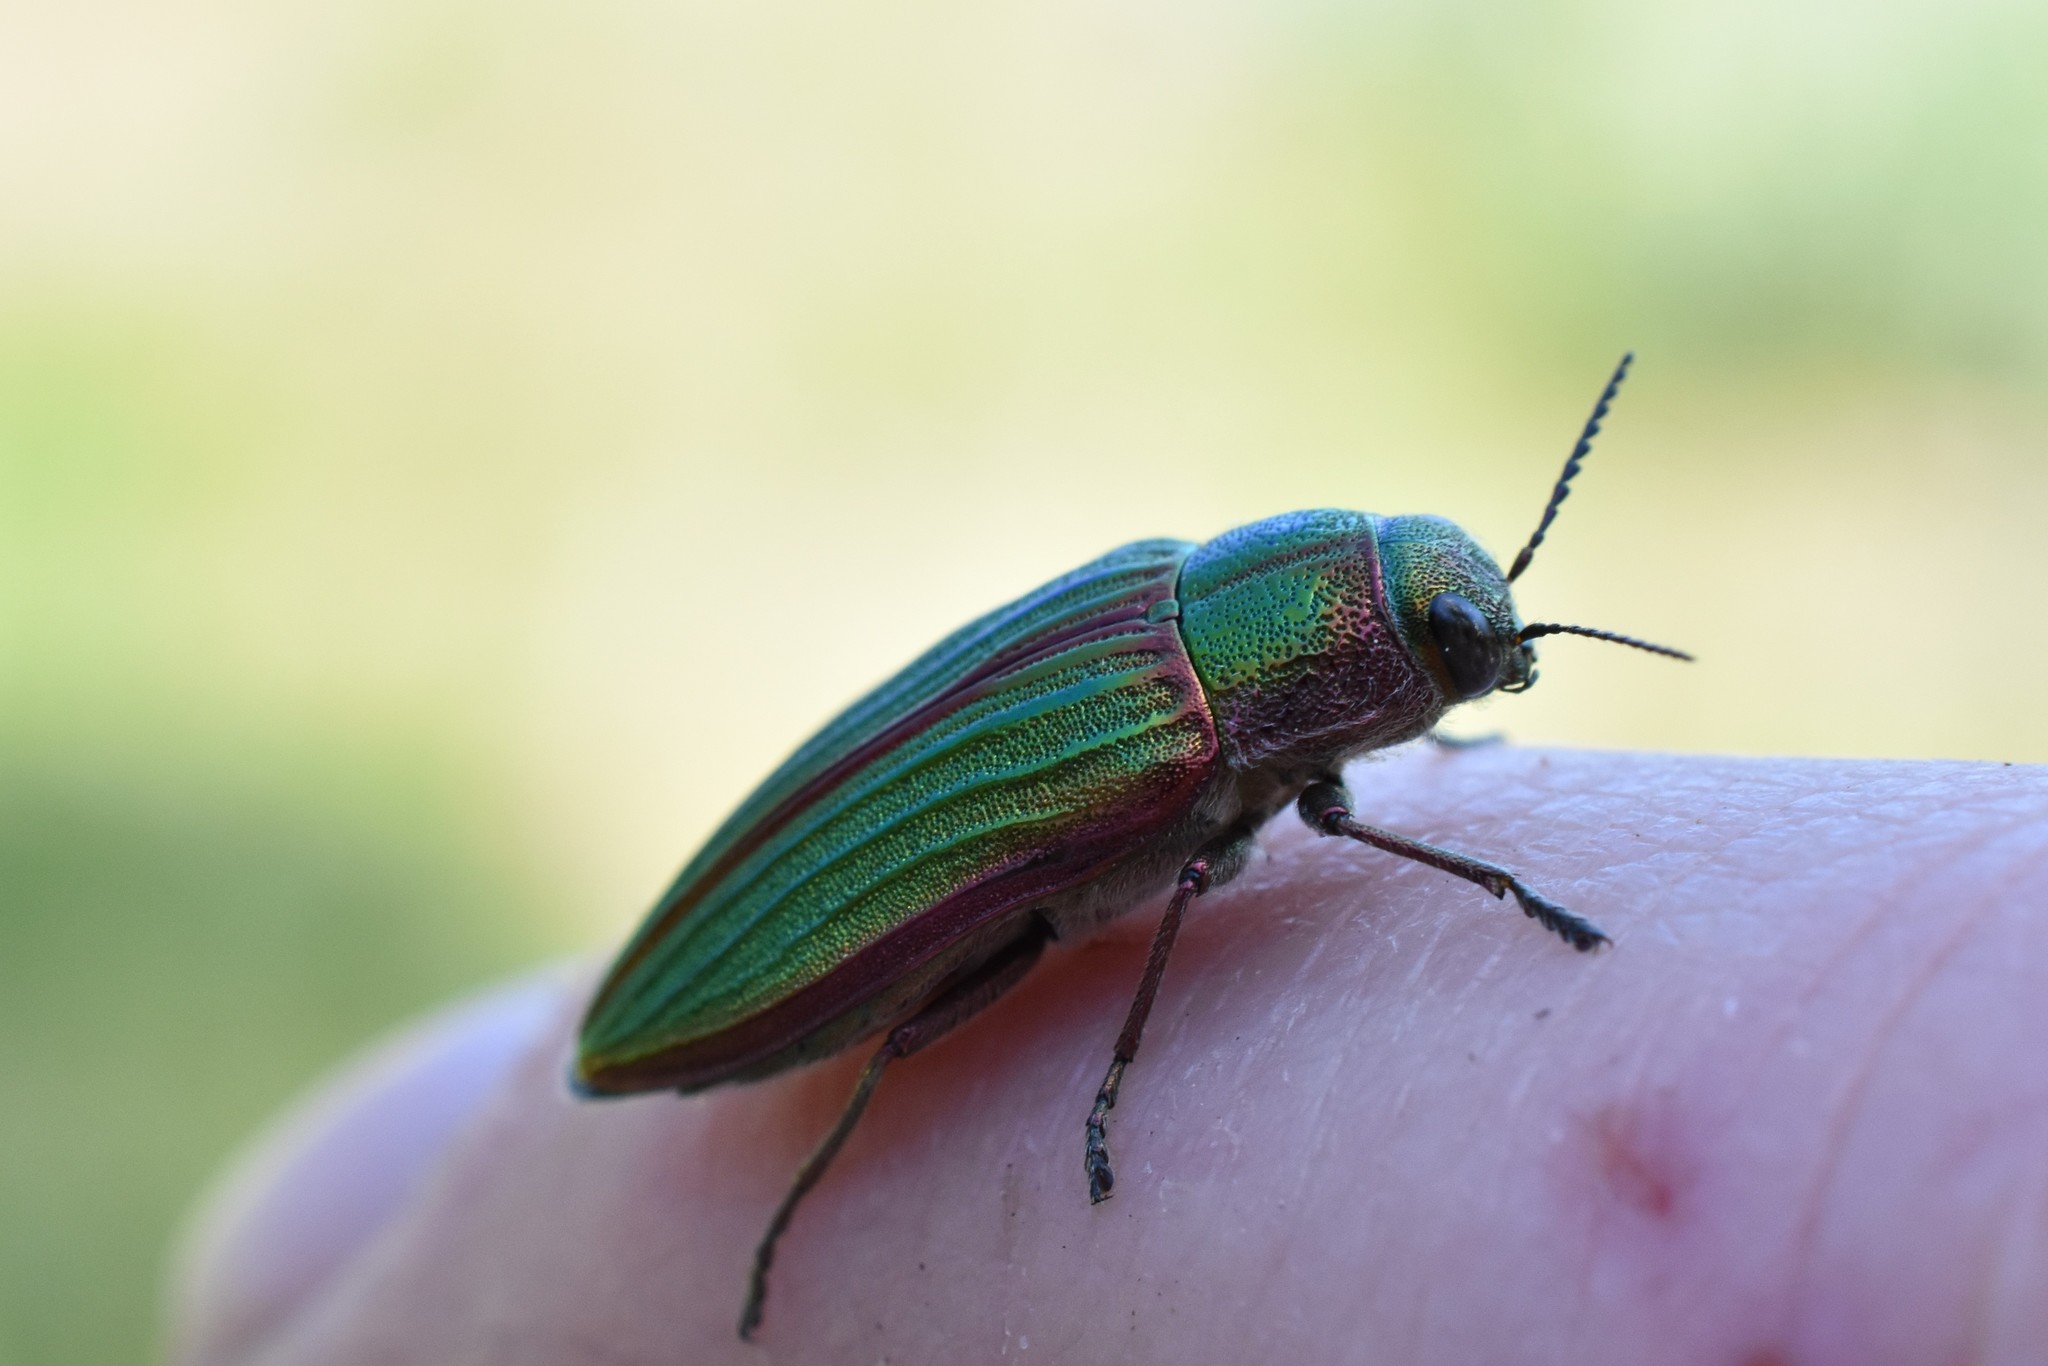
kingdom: Animalia
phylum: Arthropoda
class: Insecta
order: Coleoptera
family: Buprestidae
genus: Buprestis
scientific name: Buprestis aurulenta
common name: Golden buprestid
